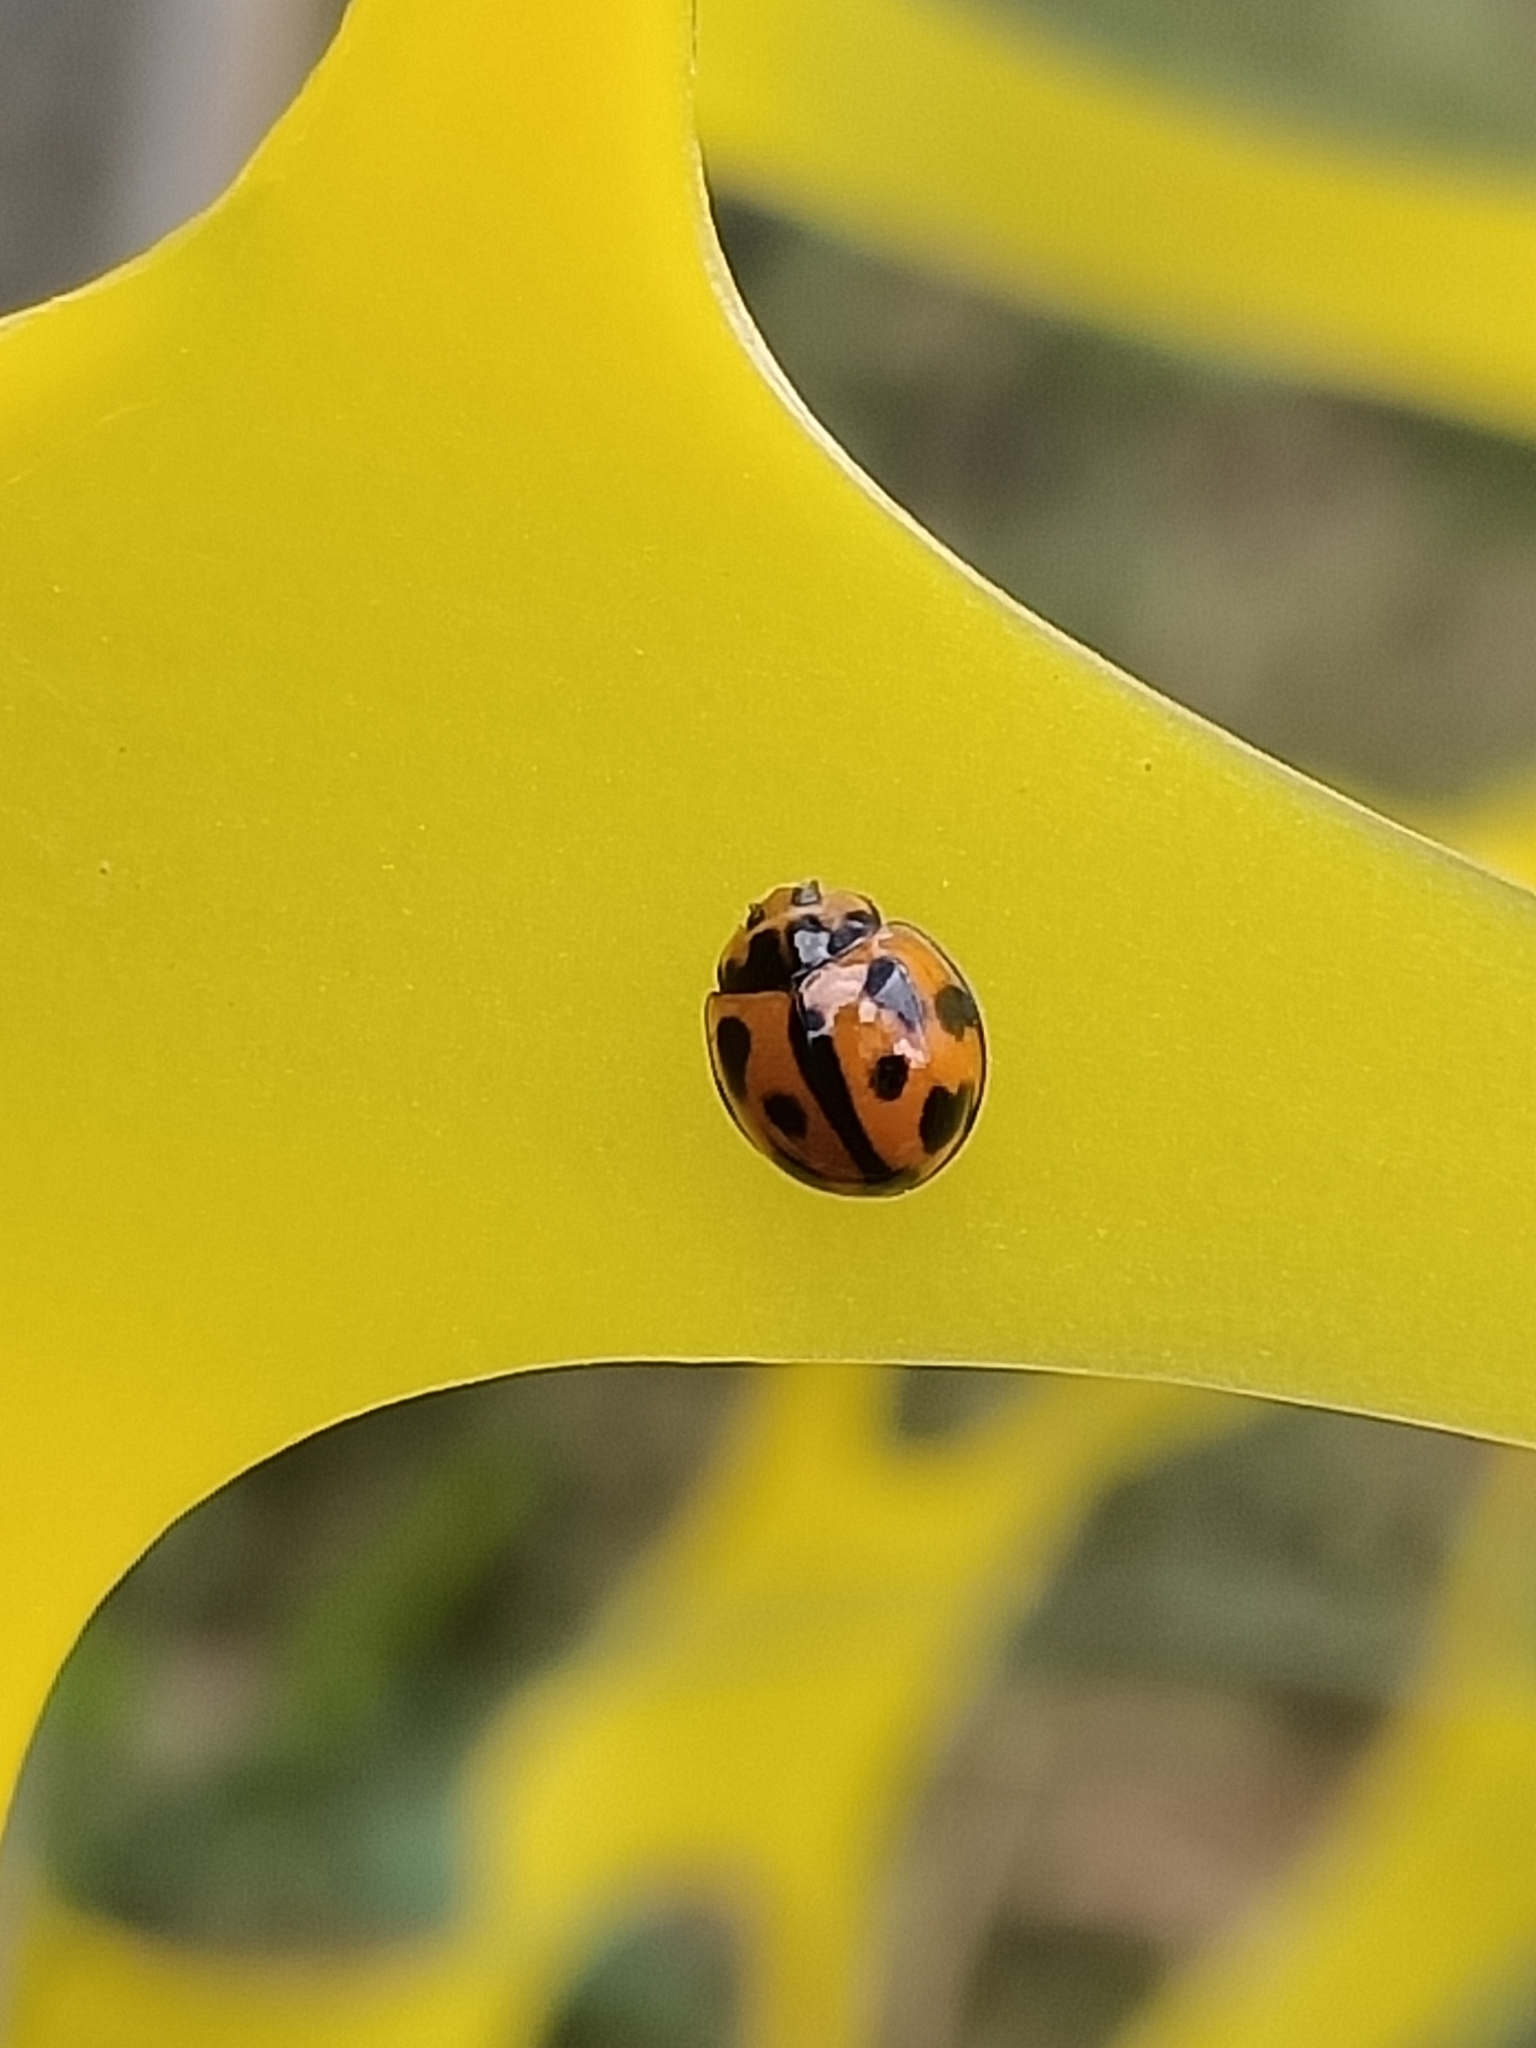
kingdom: Animalia
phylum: Arthropoda
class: Insecta
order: Coleoptera
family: Coccinellidae
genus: Coelophora
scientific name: Coelophora inaequalis
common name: Common australian lady beetle
